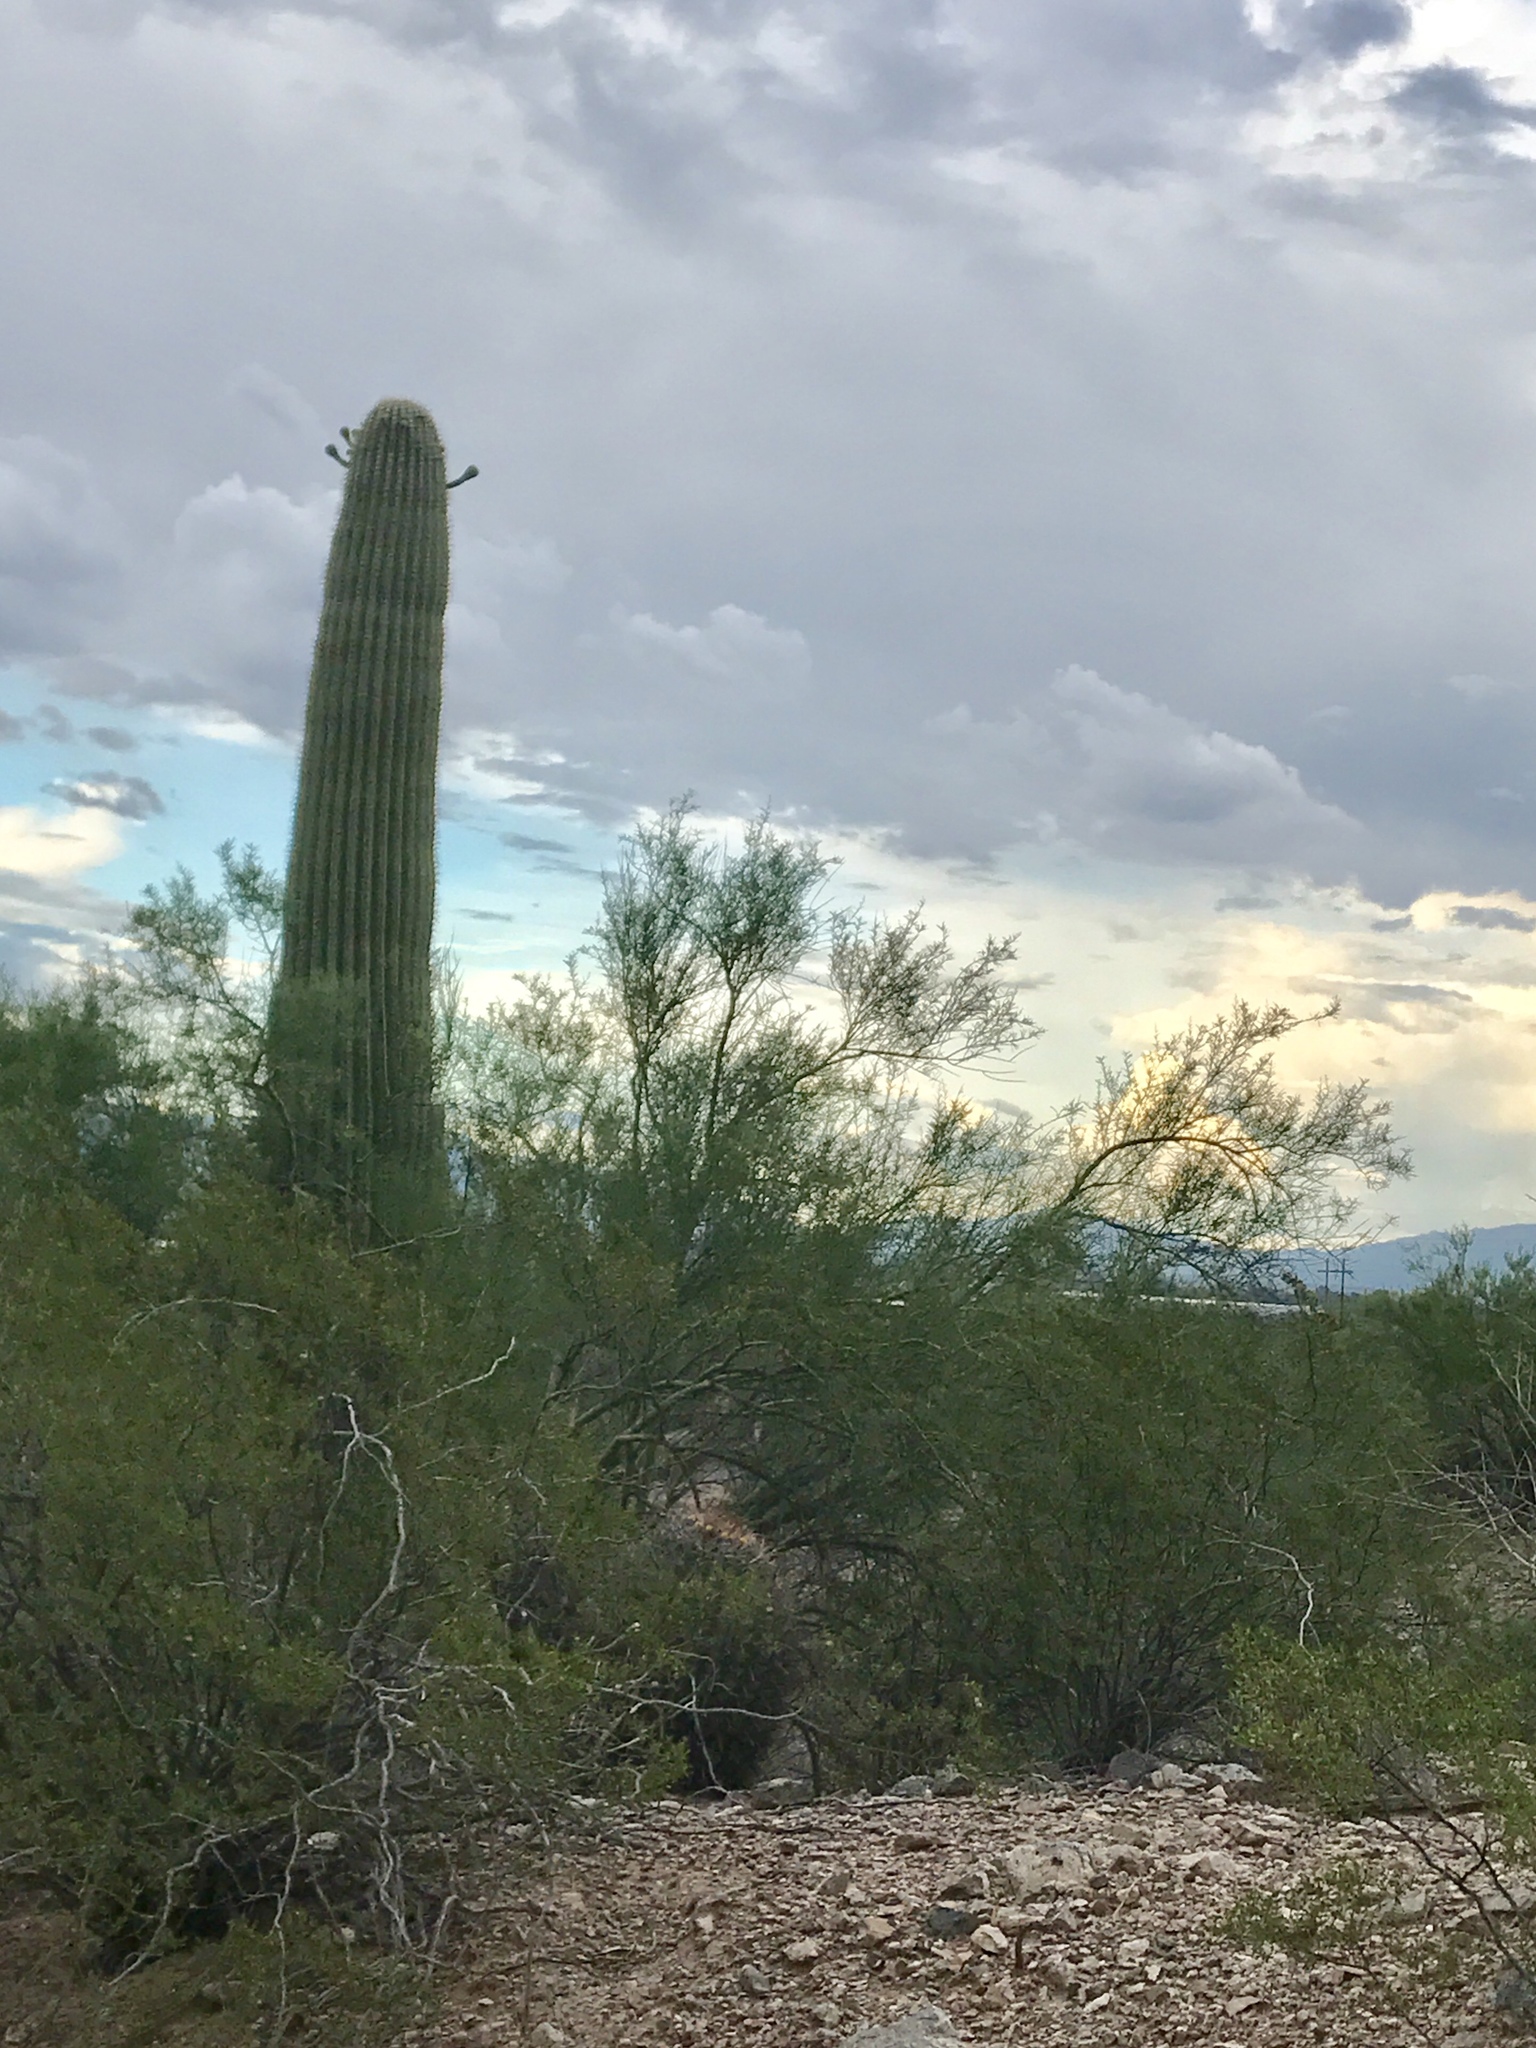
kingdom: Plantae
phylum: Tracheophyta
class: Magnoliopsida
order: Caryophyllales
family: Cactaceae
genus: Carnegiea
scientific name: Carnegiea gigantea
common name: Saguaro
